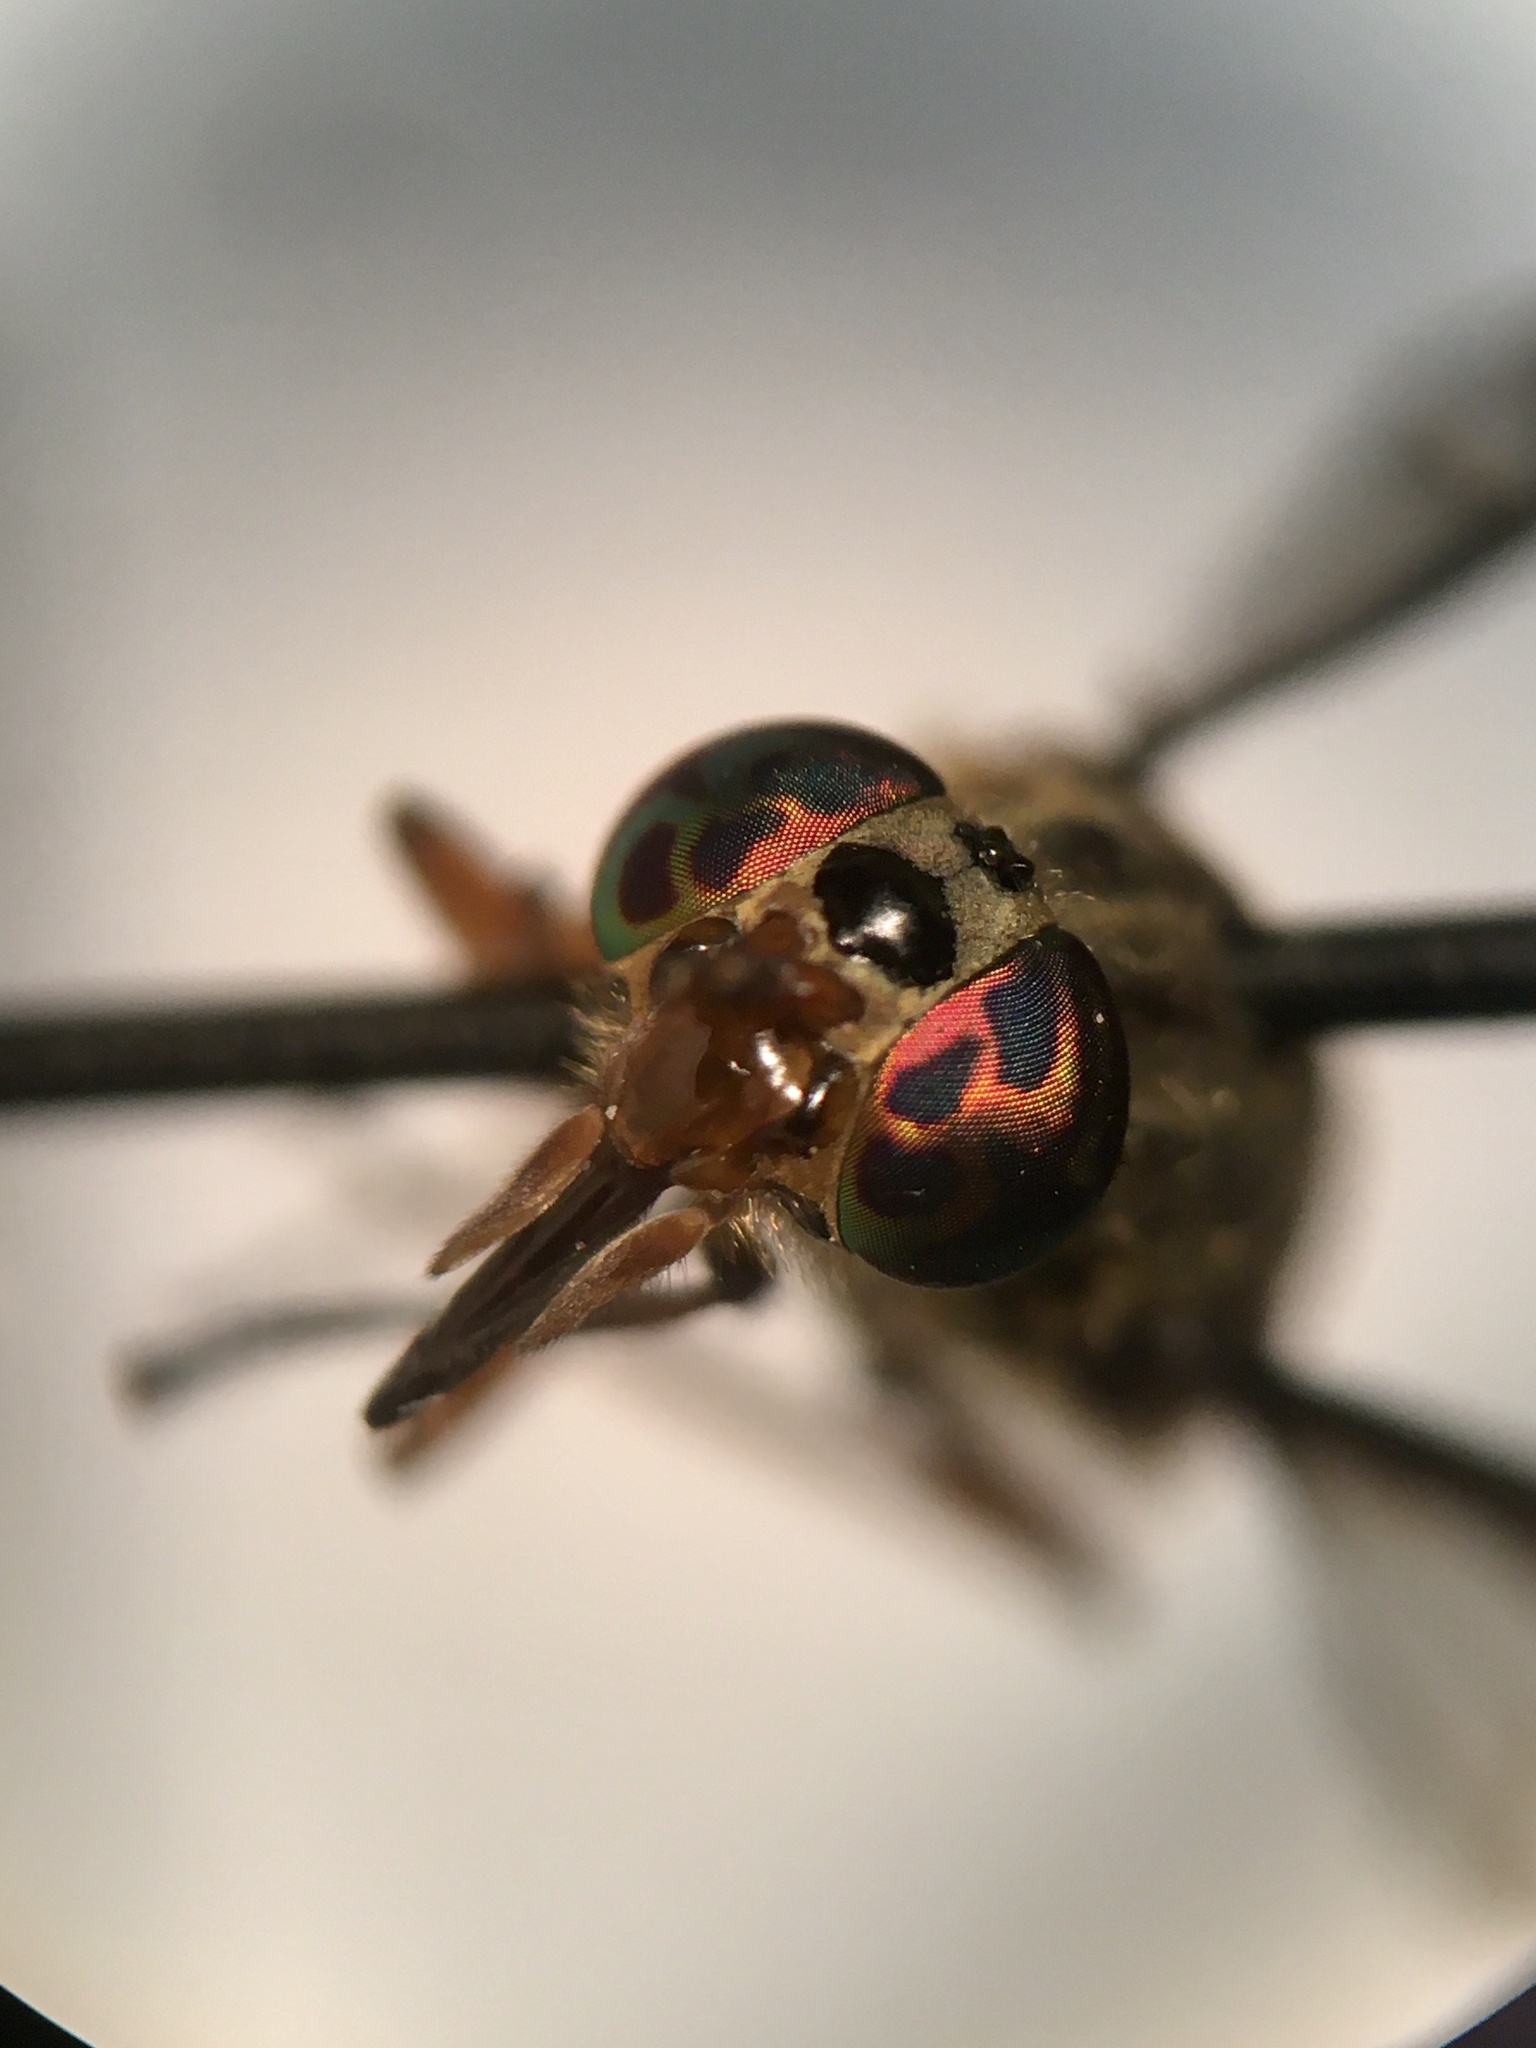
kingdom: Animalia
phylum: Arthropoda
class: Insecta
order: Diptera
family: Tabanidae
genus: Chrysops
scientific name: Chrysops striatus
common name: Striated deer fly
